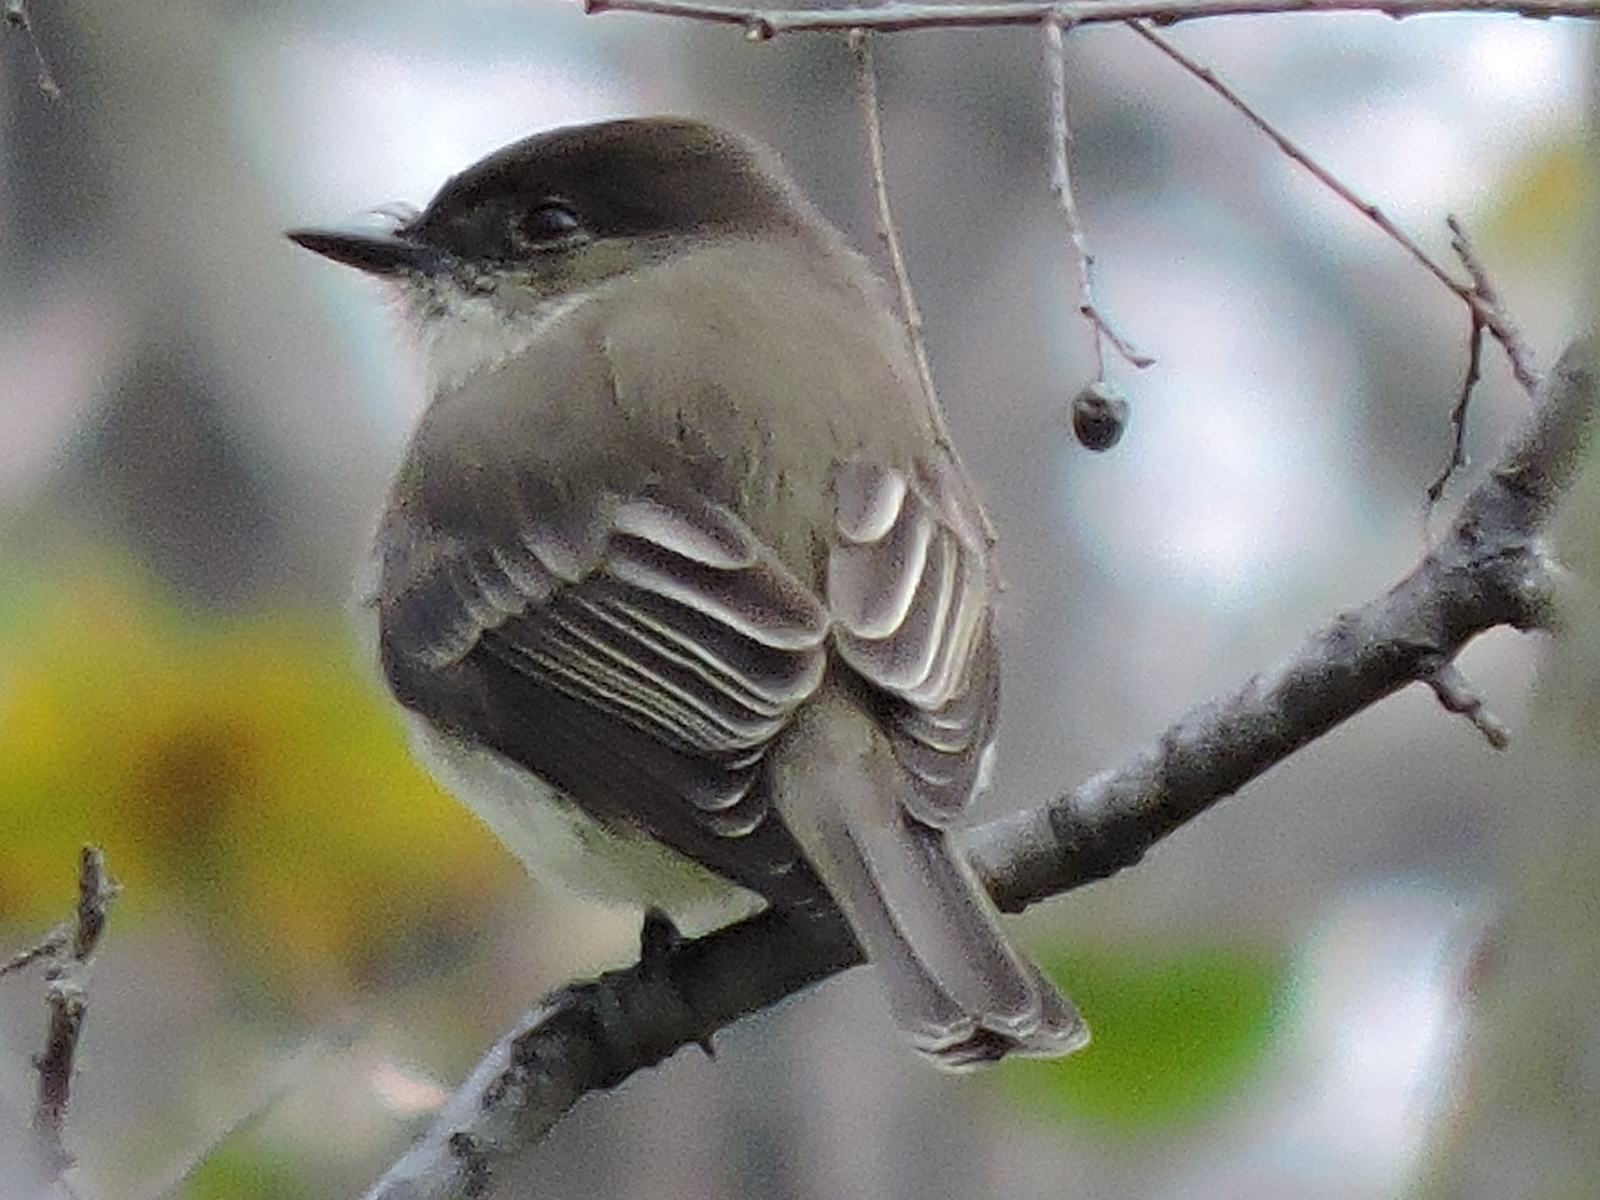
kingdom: Animalia
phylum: Chordata
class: Aves
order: Passeriformes
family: Tyrannidae
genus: Sayornis
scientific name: Sayornis phoebe
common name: Eastern phoebe
